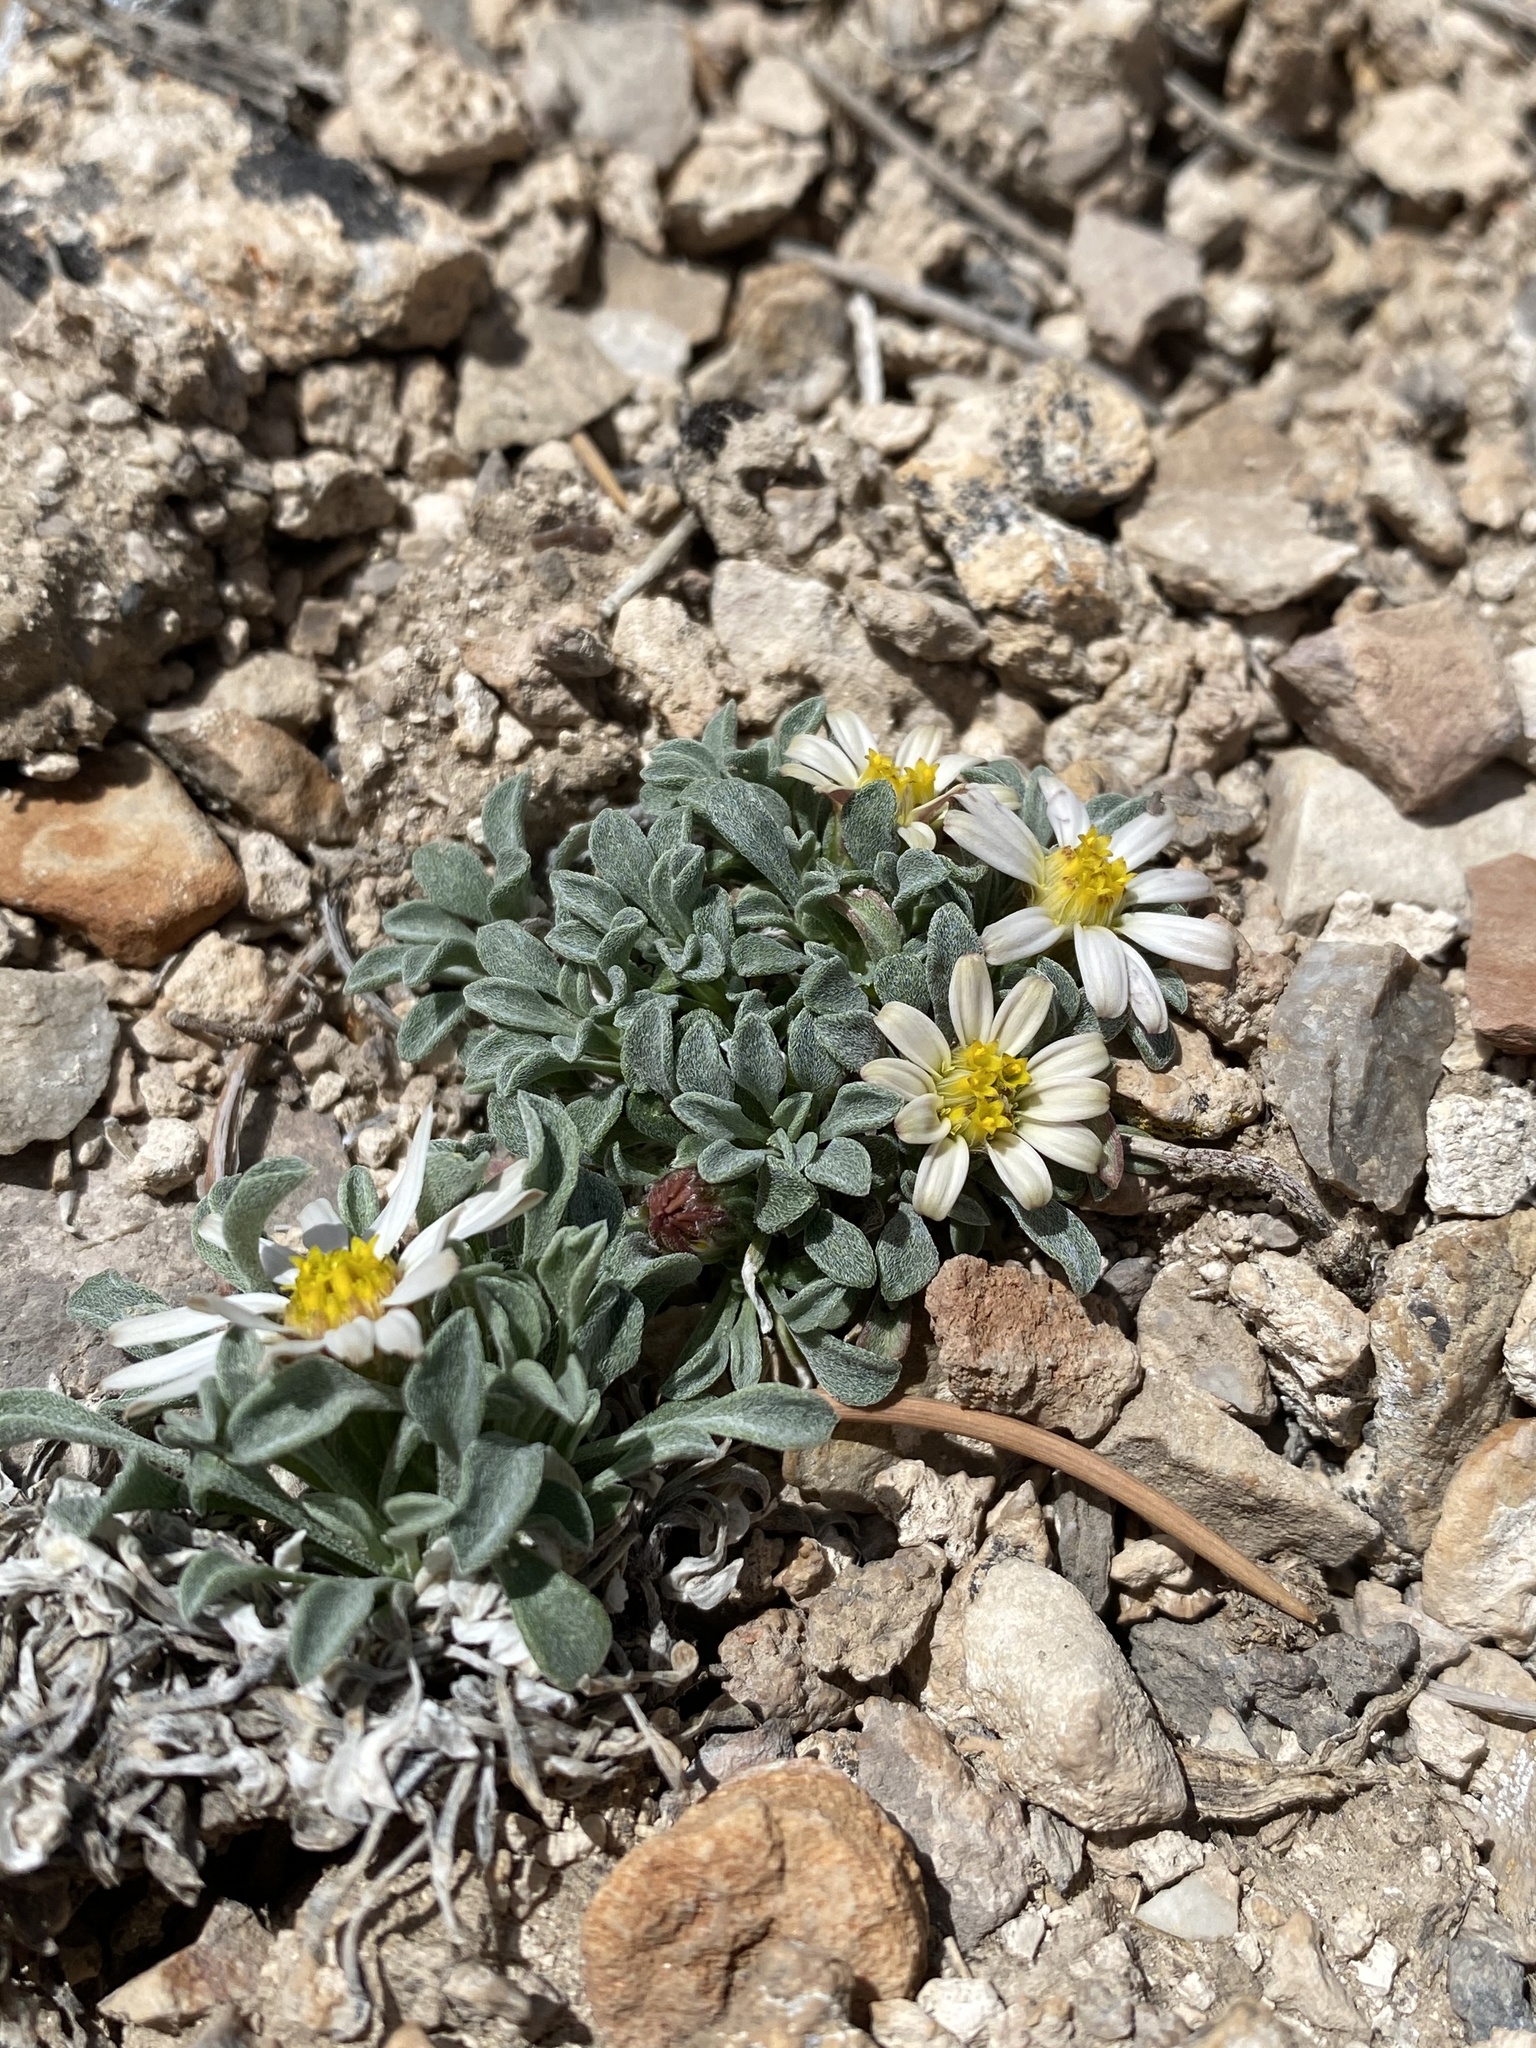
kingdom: Plantae
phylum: Tracheophyta
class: Magnoliopsida
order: Asterales
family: Asteraceae
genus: Townsendia
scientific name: Townsendia jonesii
